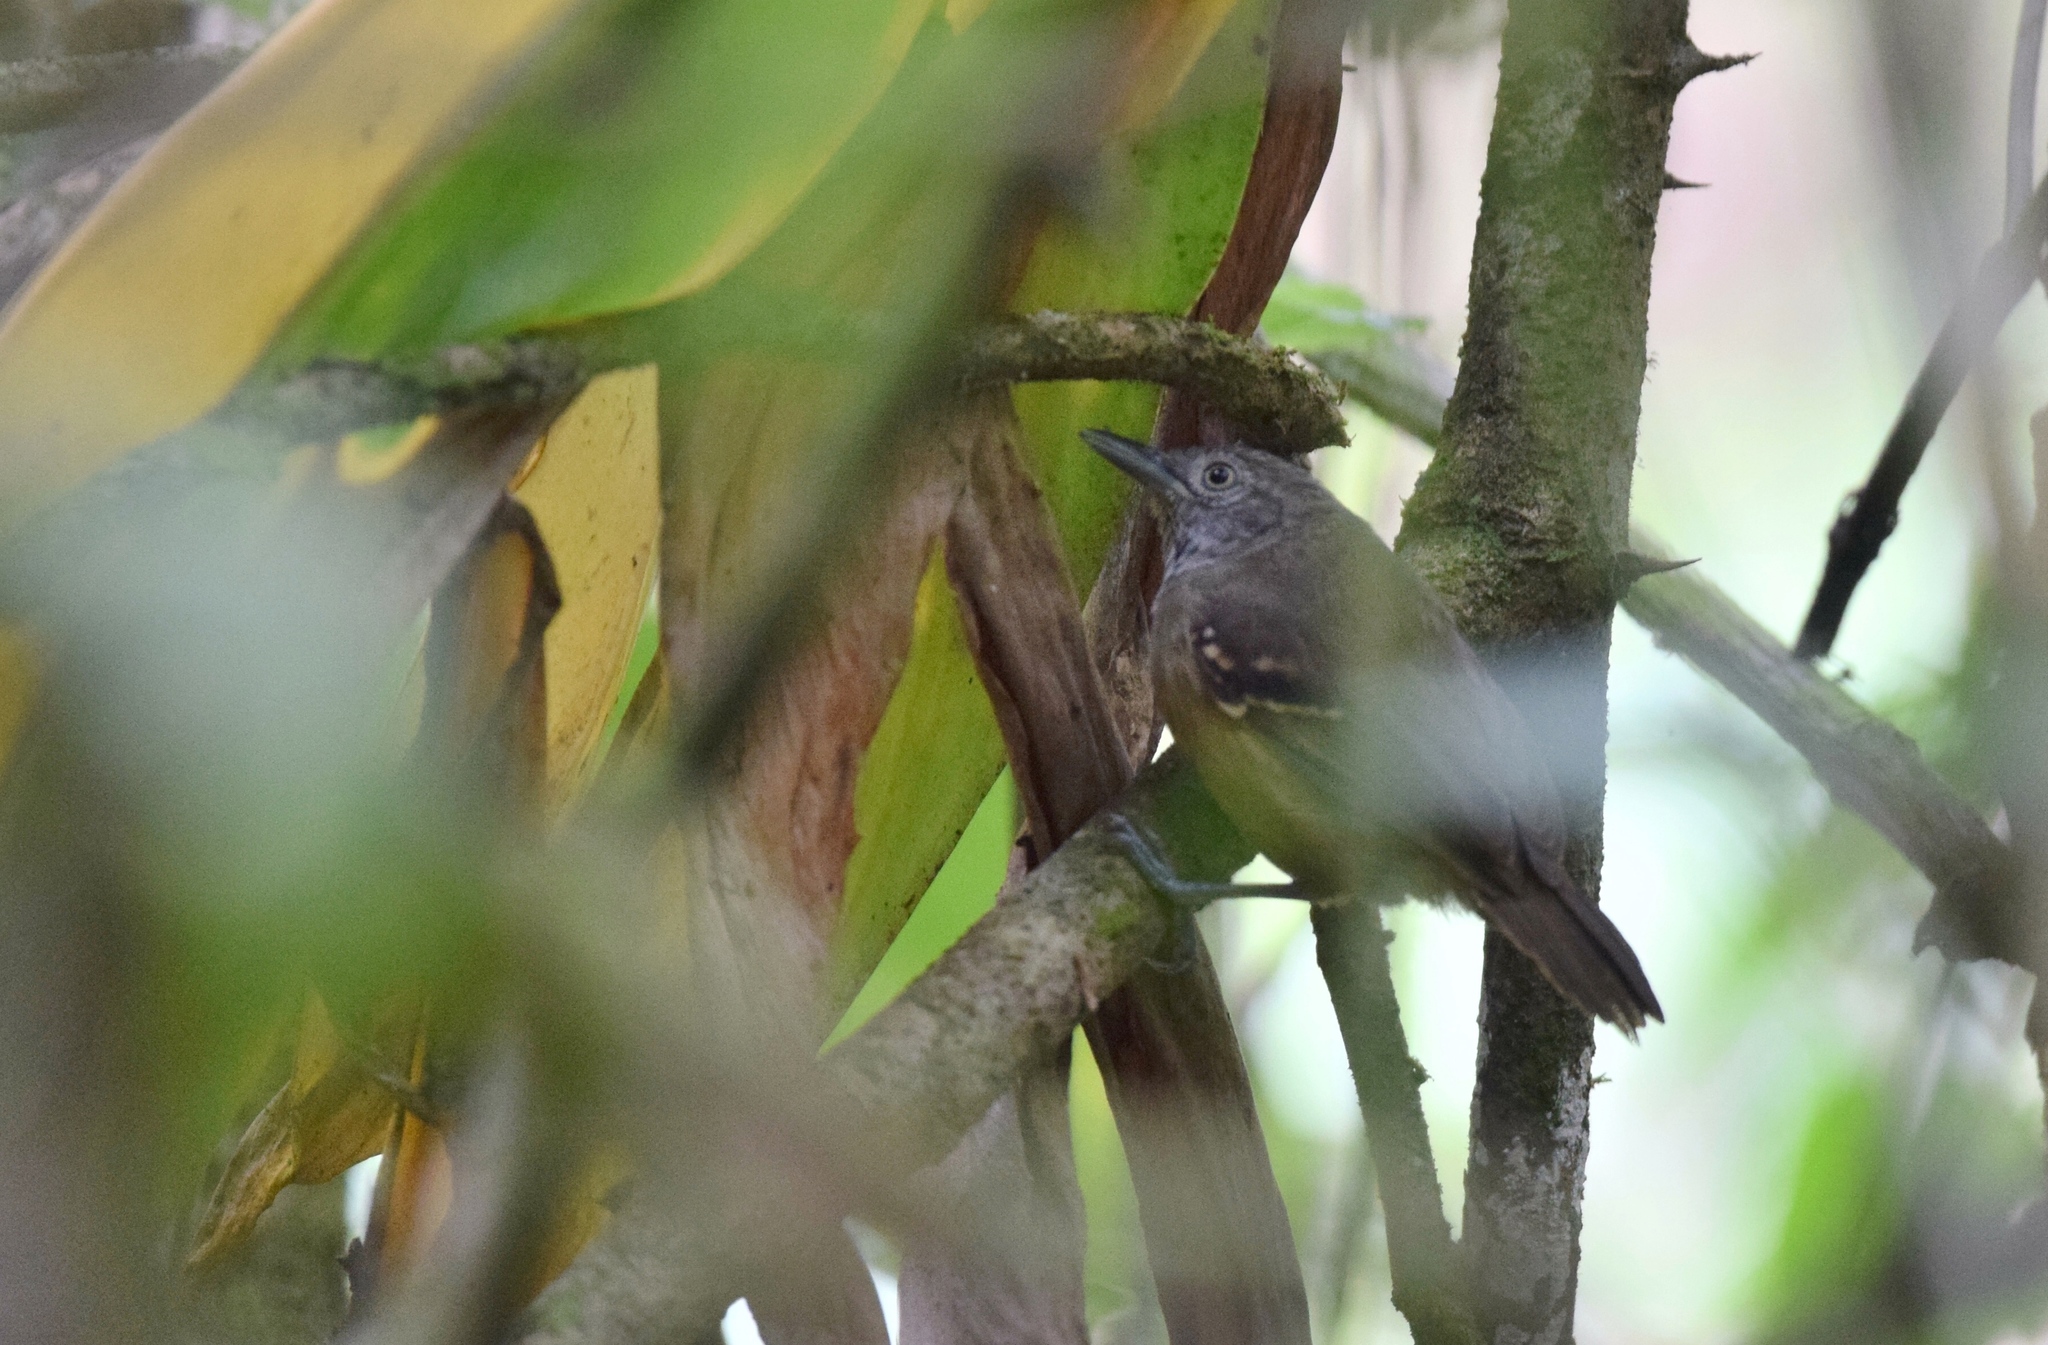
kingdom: Animalia
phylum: Chordata
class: Aves
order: Passeriformes
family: Thamnophilidae
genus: Epinecrophylla
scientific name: Epinecrophylla fulviventris
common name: Checker-throated antwren
